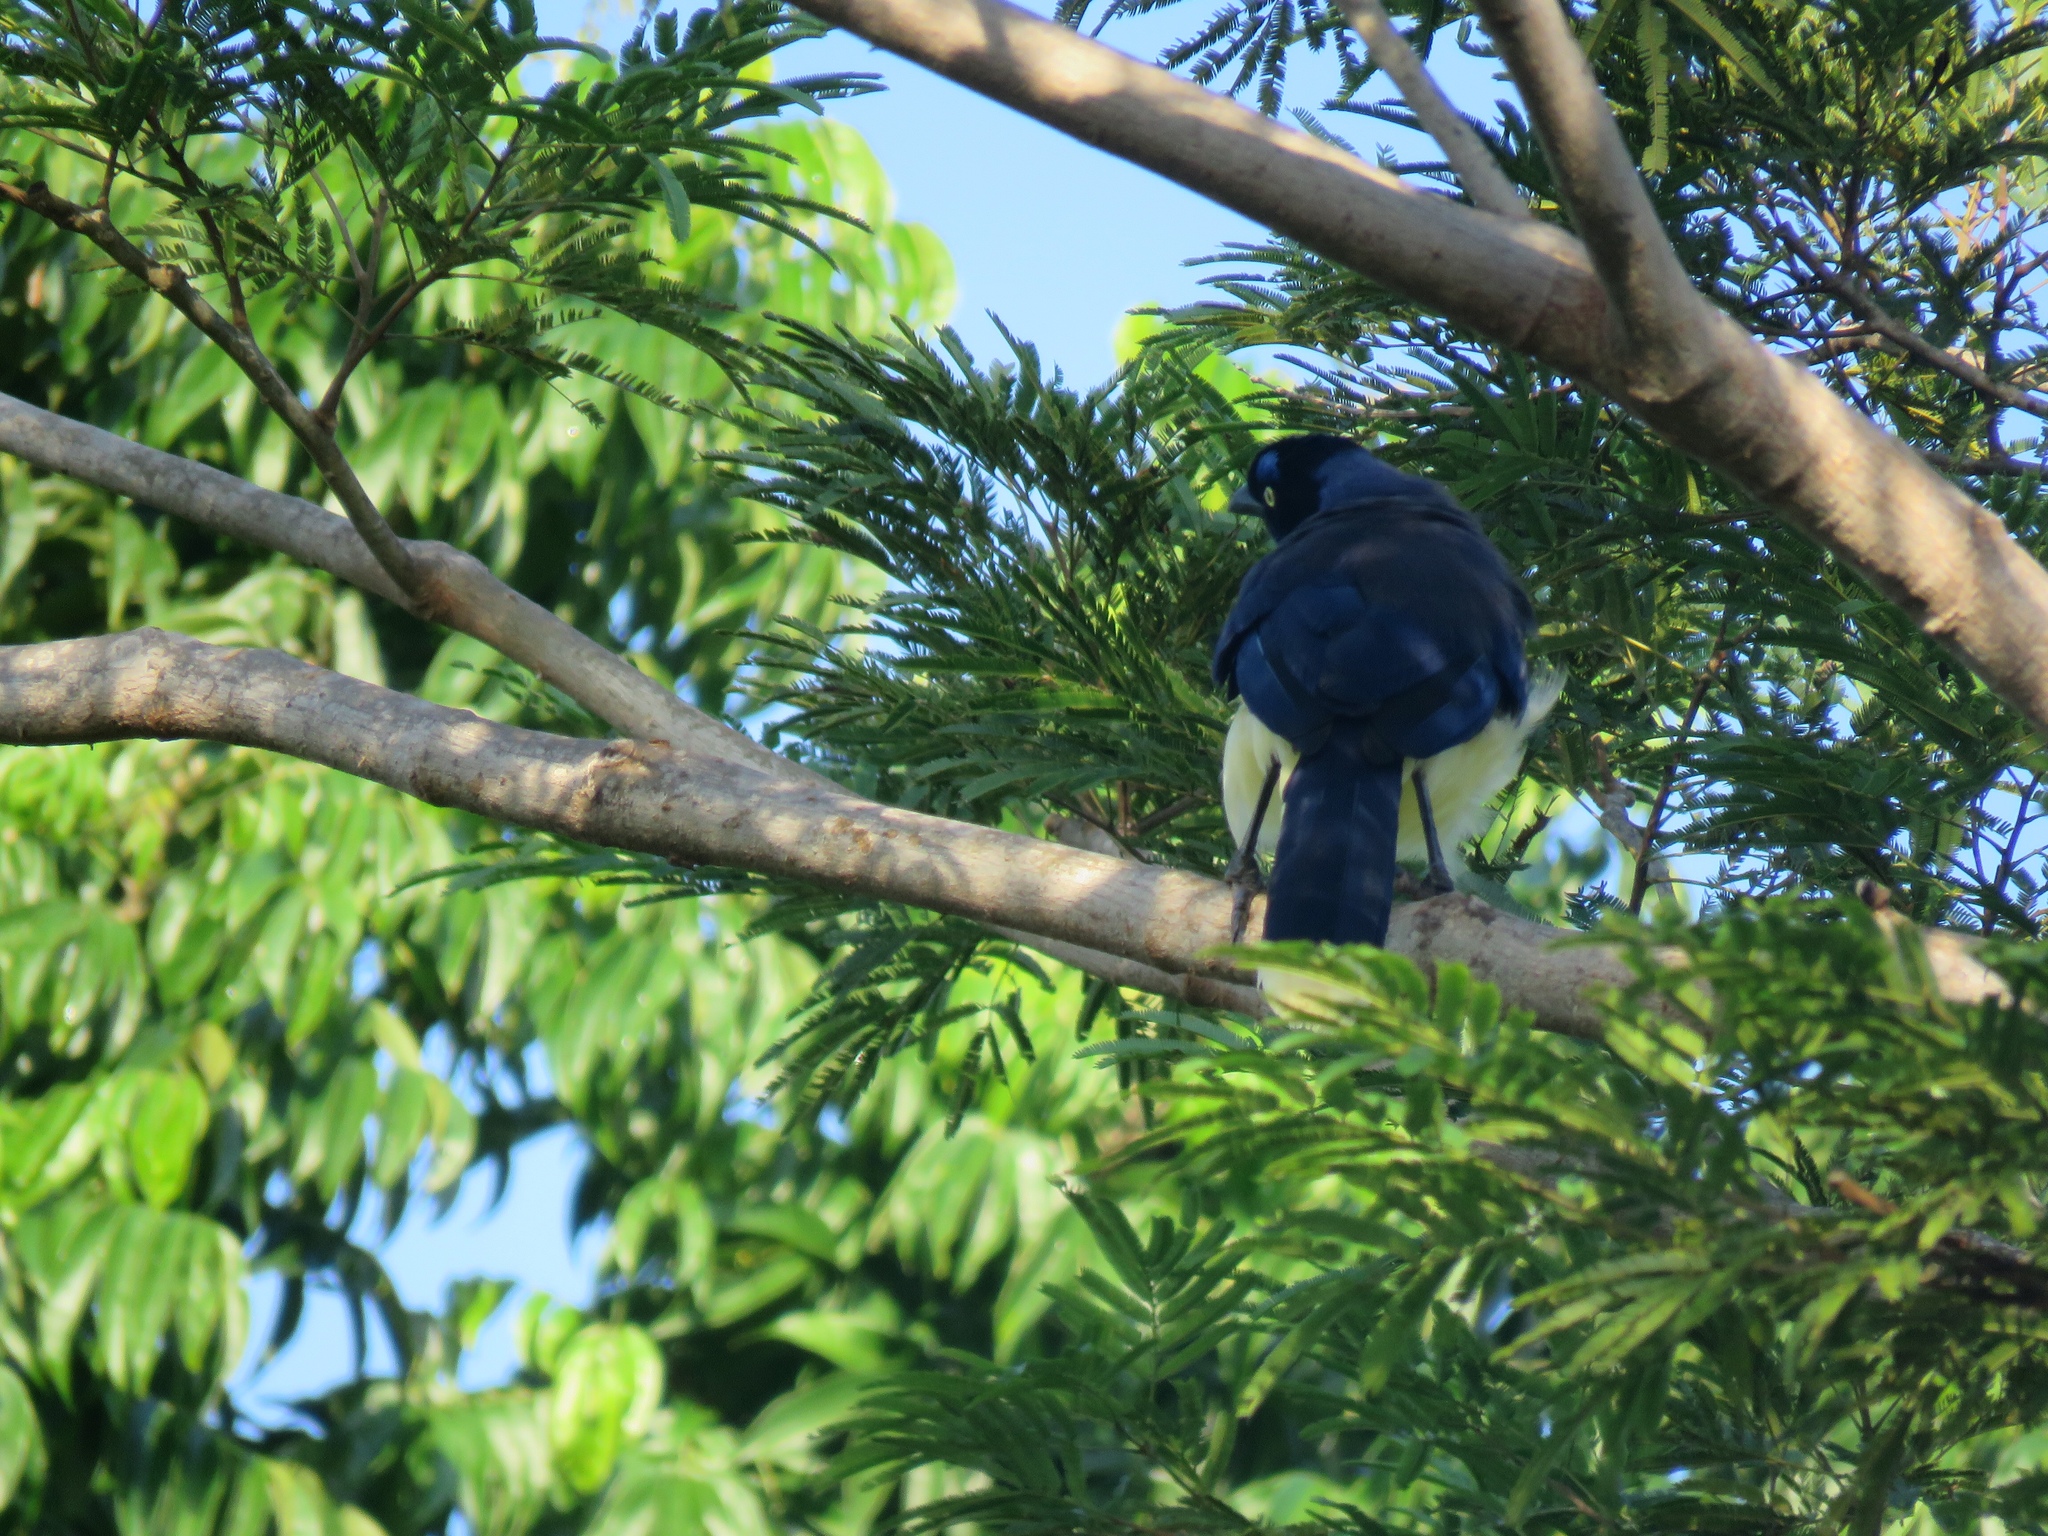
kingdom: Animalia
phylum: Chordata
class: Aves
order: Passeriformes
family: Corvidae
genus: Cyanocorax
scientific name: Cyanocorax affinis
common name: Black-chested jay
